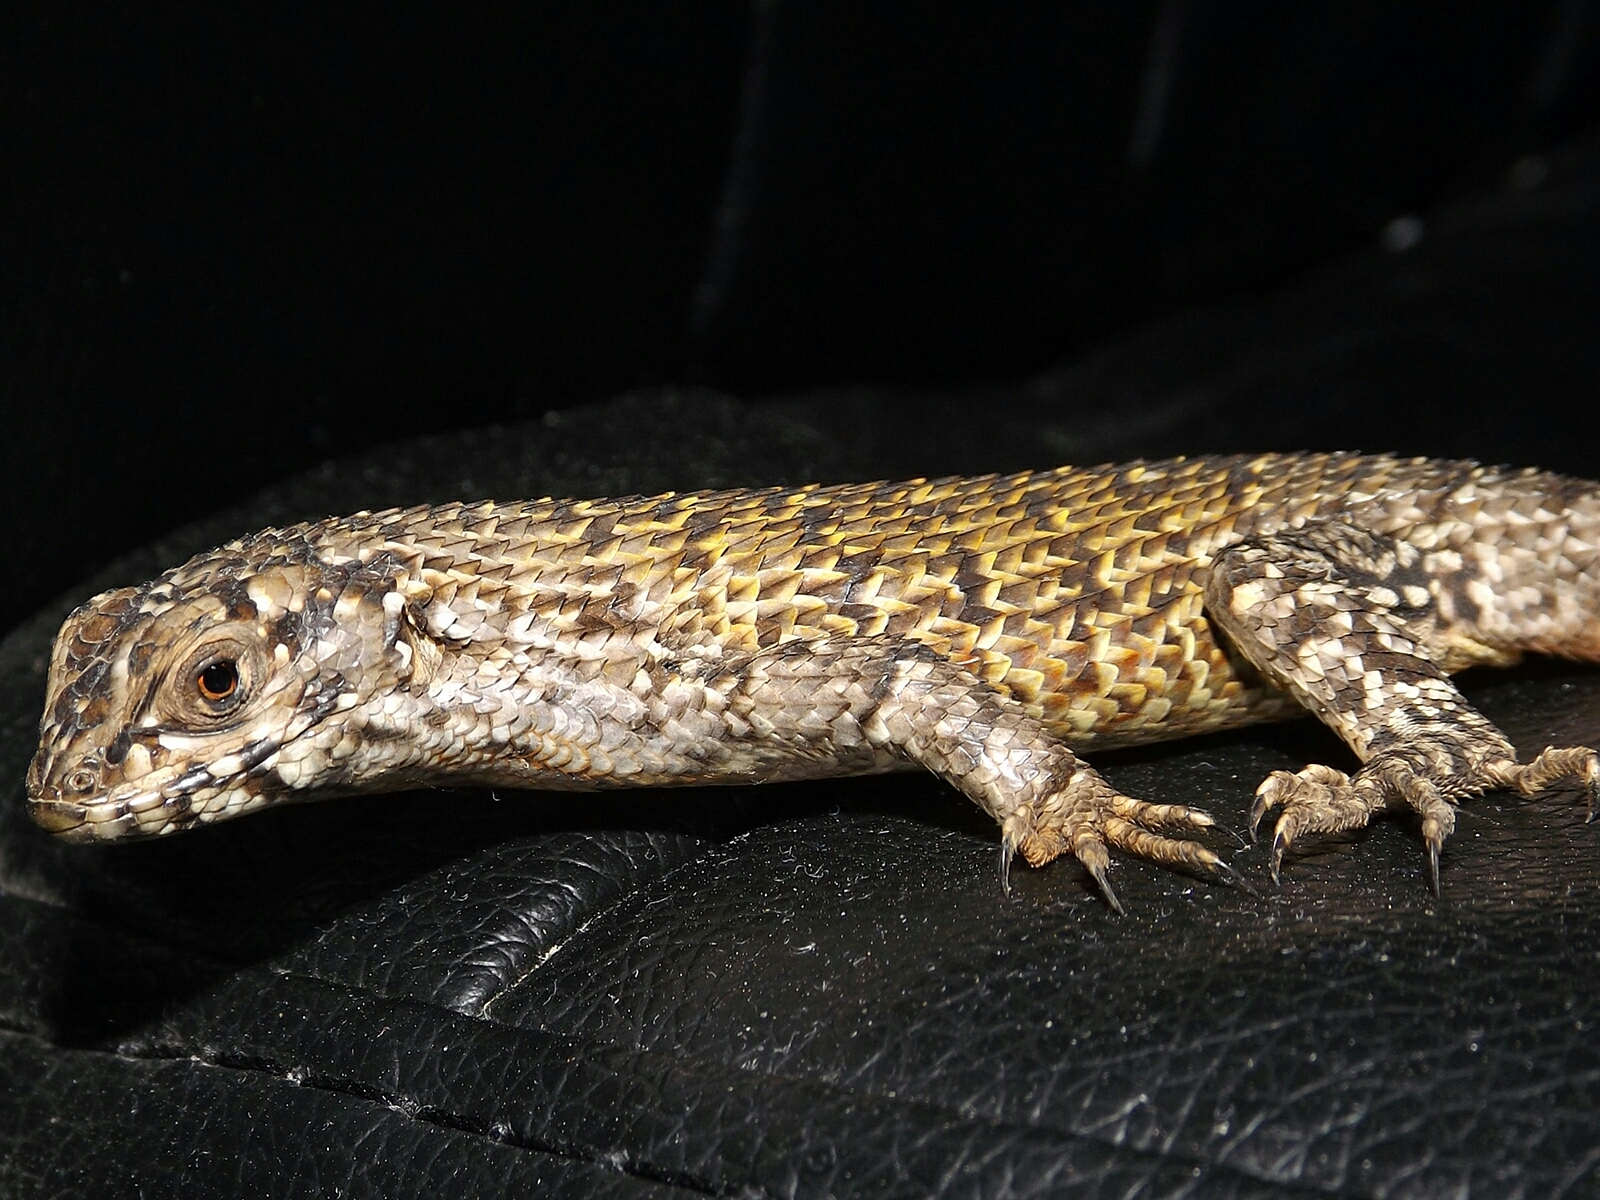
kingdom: Animalia
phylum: Chordata
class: Squamata
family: Liolaemidae
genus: Liolaemus
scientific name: Liolaemus nitidus
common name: Shining tree iguana
